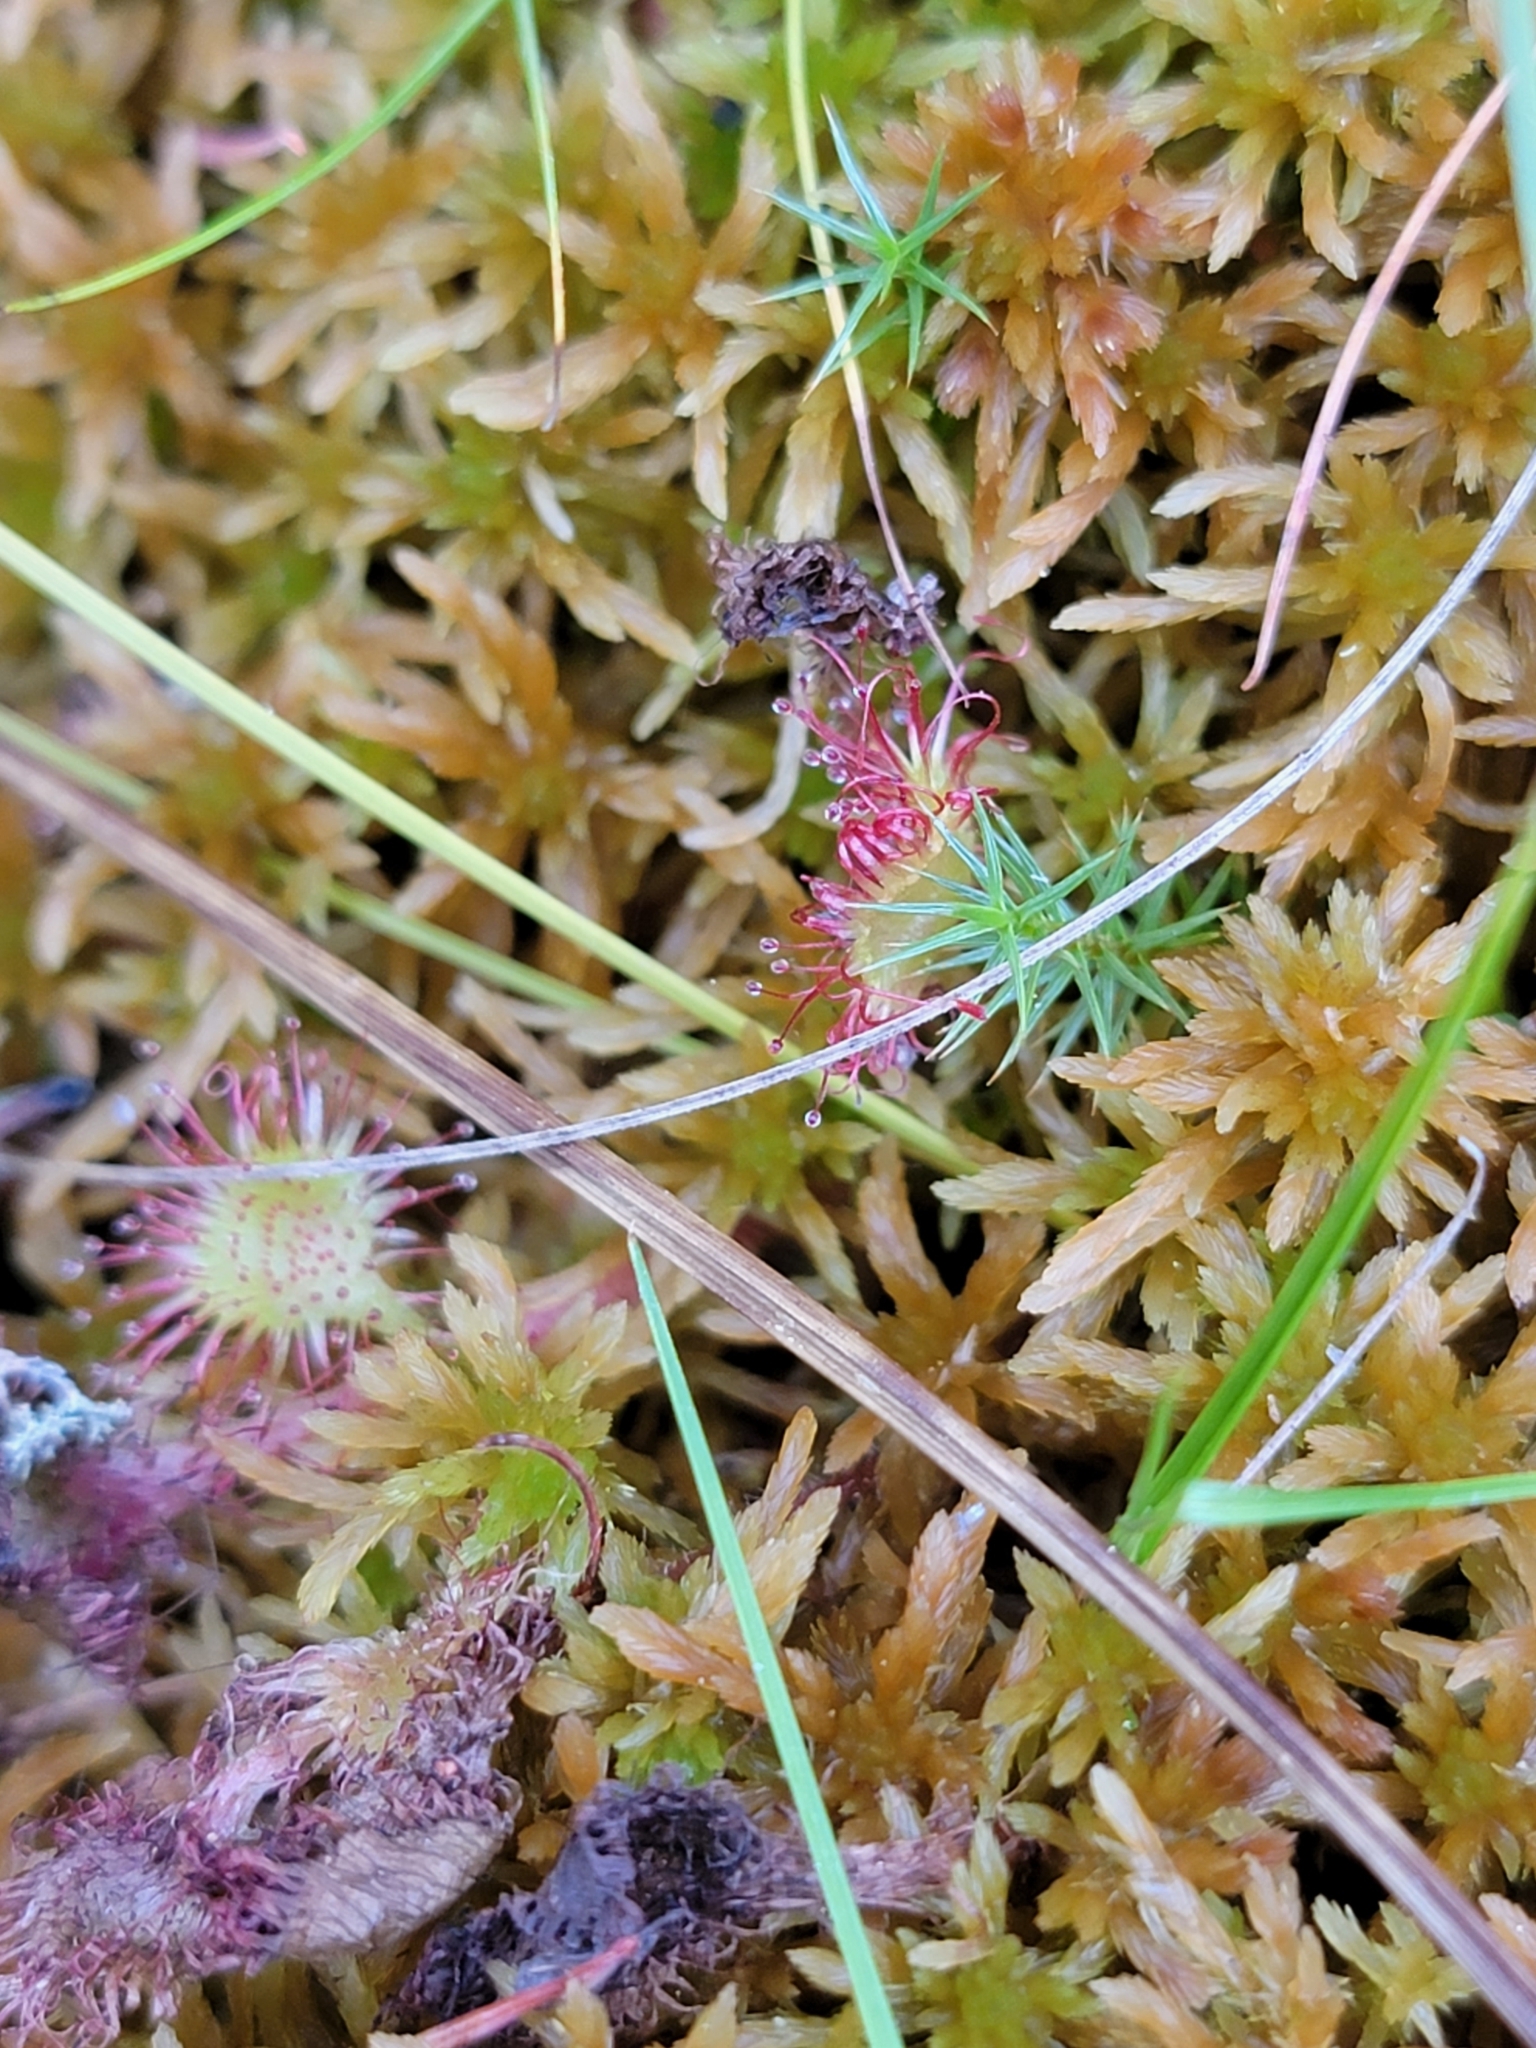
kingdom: Plantae
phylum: Tracheophyta
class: Magnoliopsida
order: Caryophyllales
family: Droseraceae
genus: Drosera
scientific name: Drosera rotundifolia
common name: Round-leaved sundew
